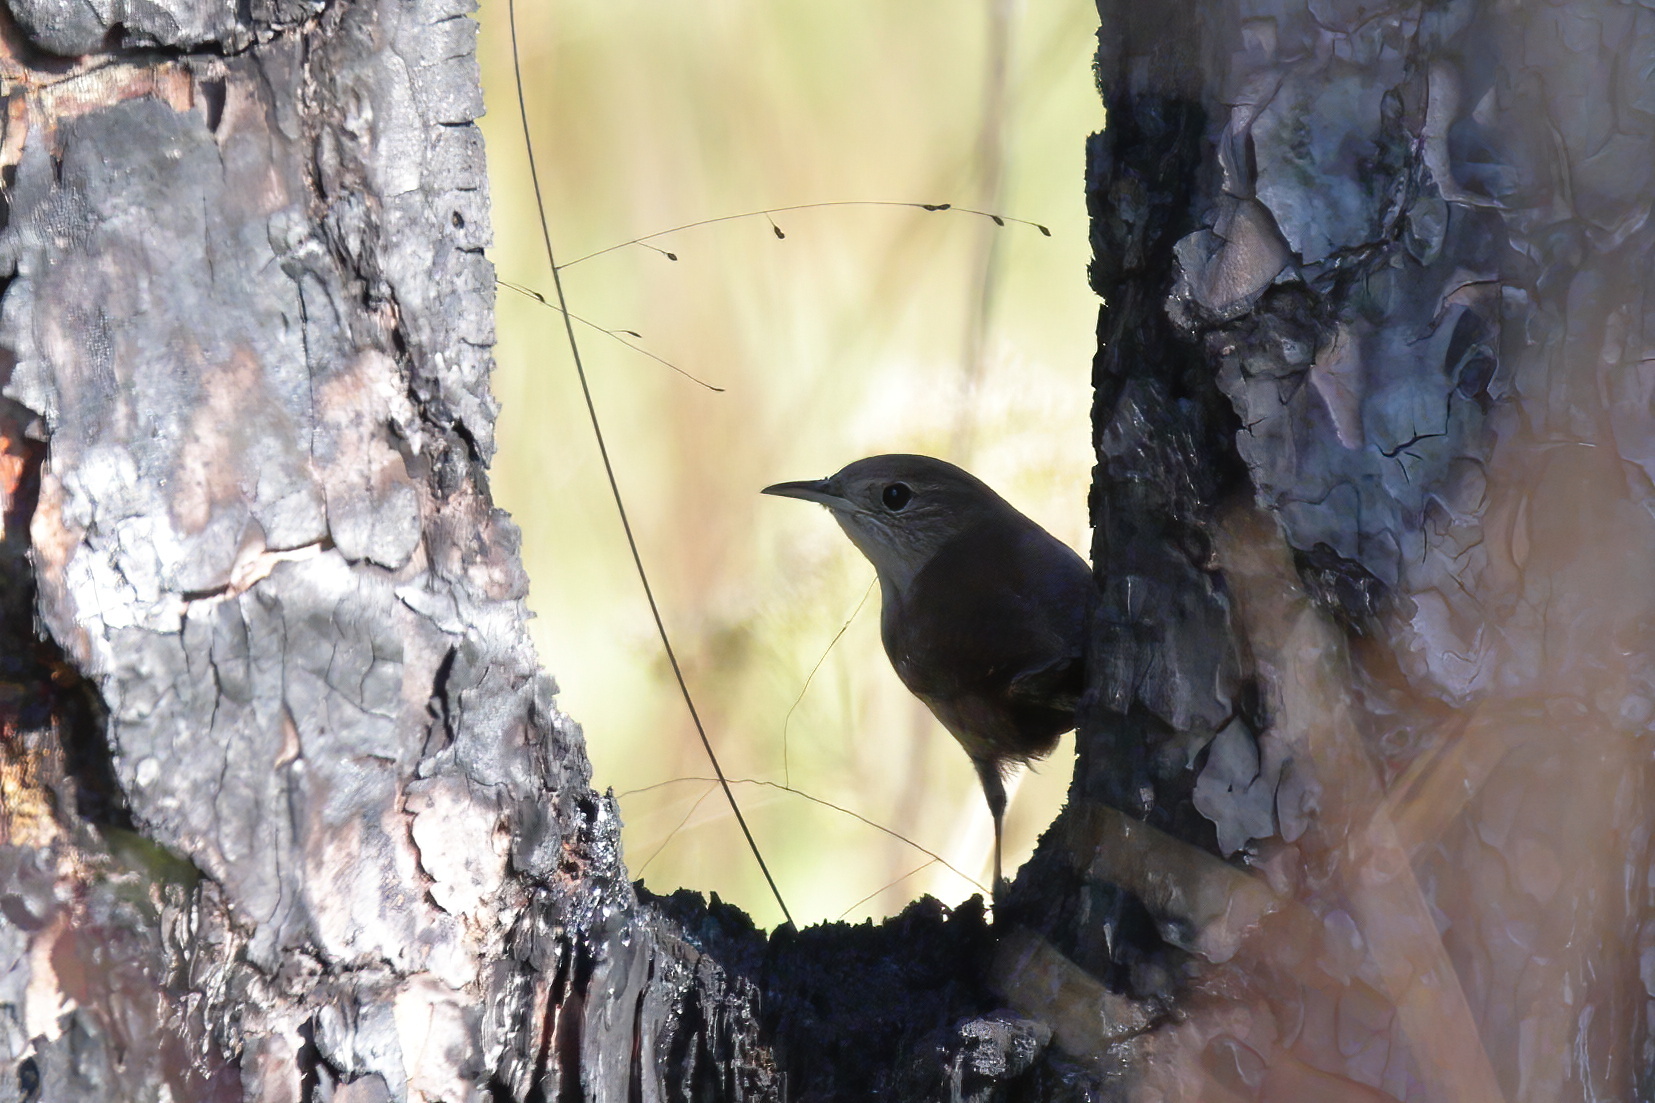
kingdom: Animalia
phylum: Chordata
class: Aves
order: Passeriformes
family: Troglodytidae
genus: Troglodytes
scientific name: Troglodytes aedon
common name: House wren
